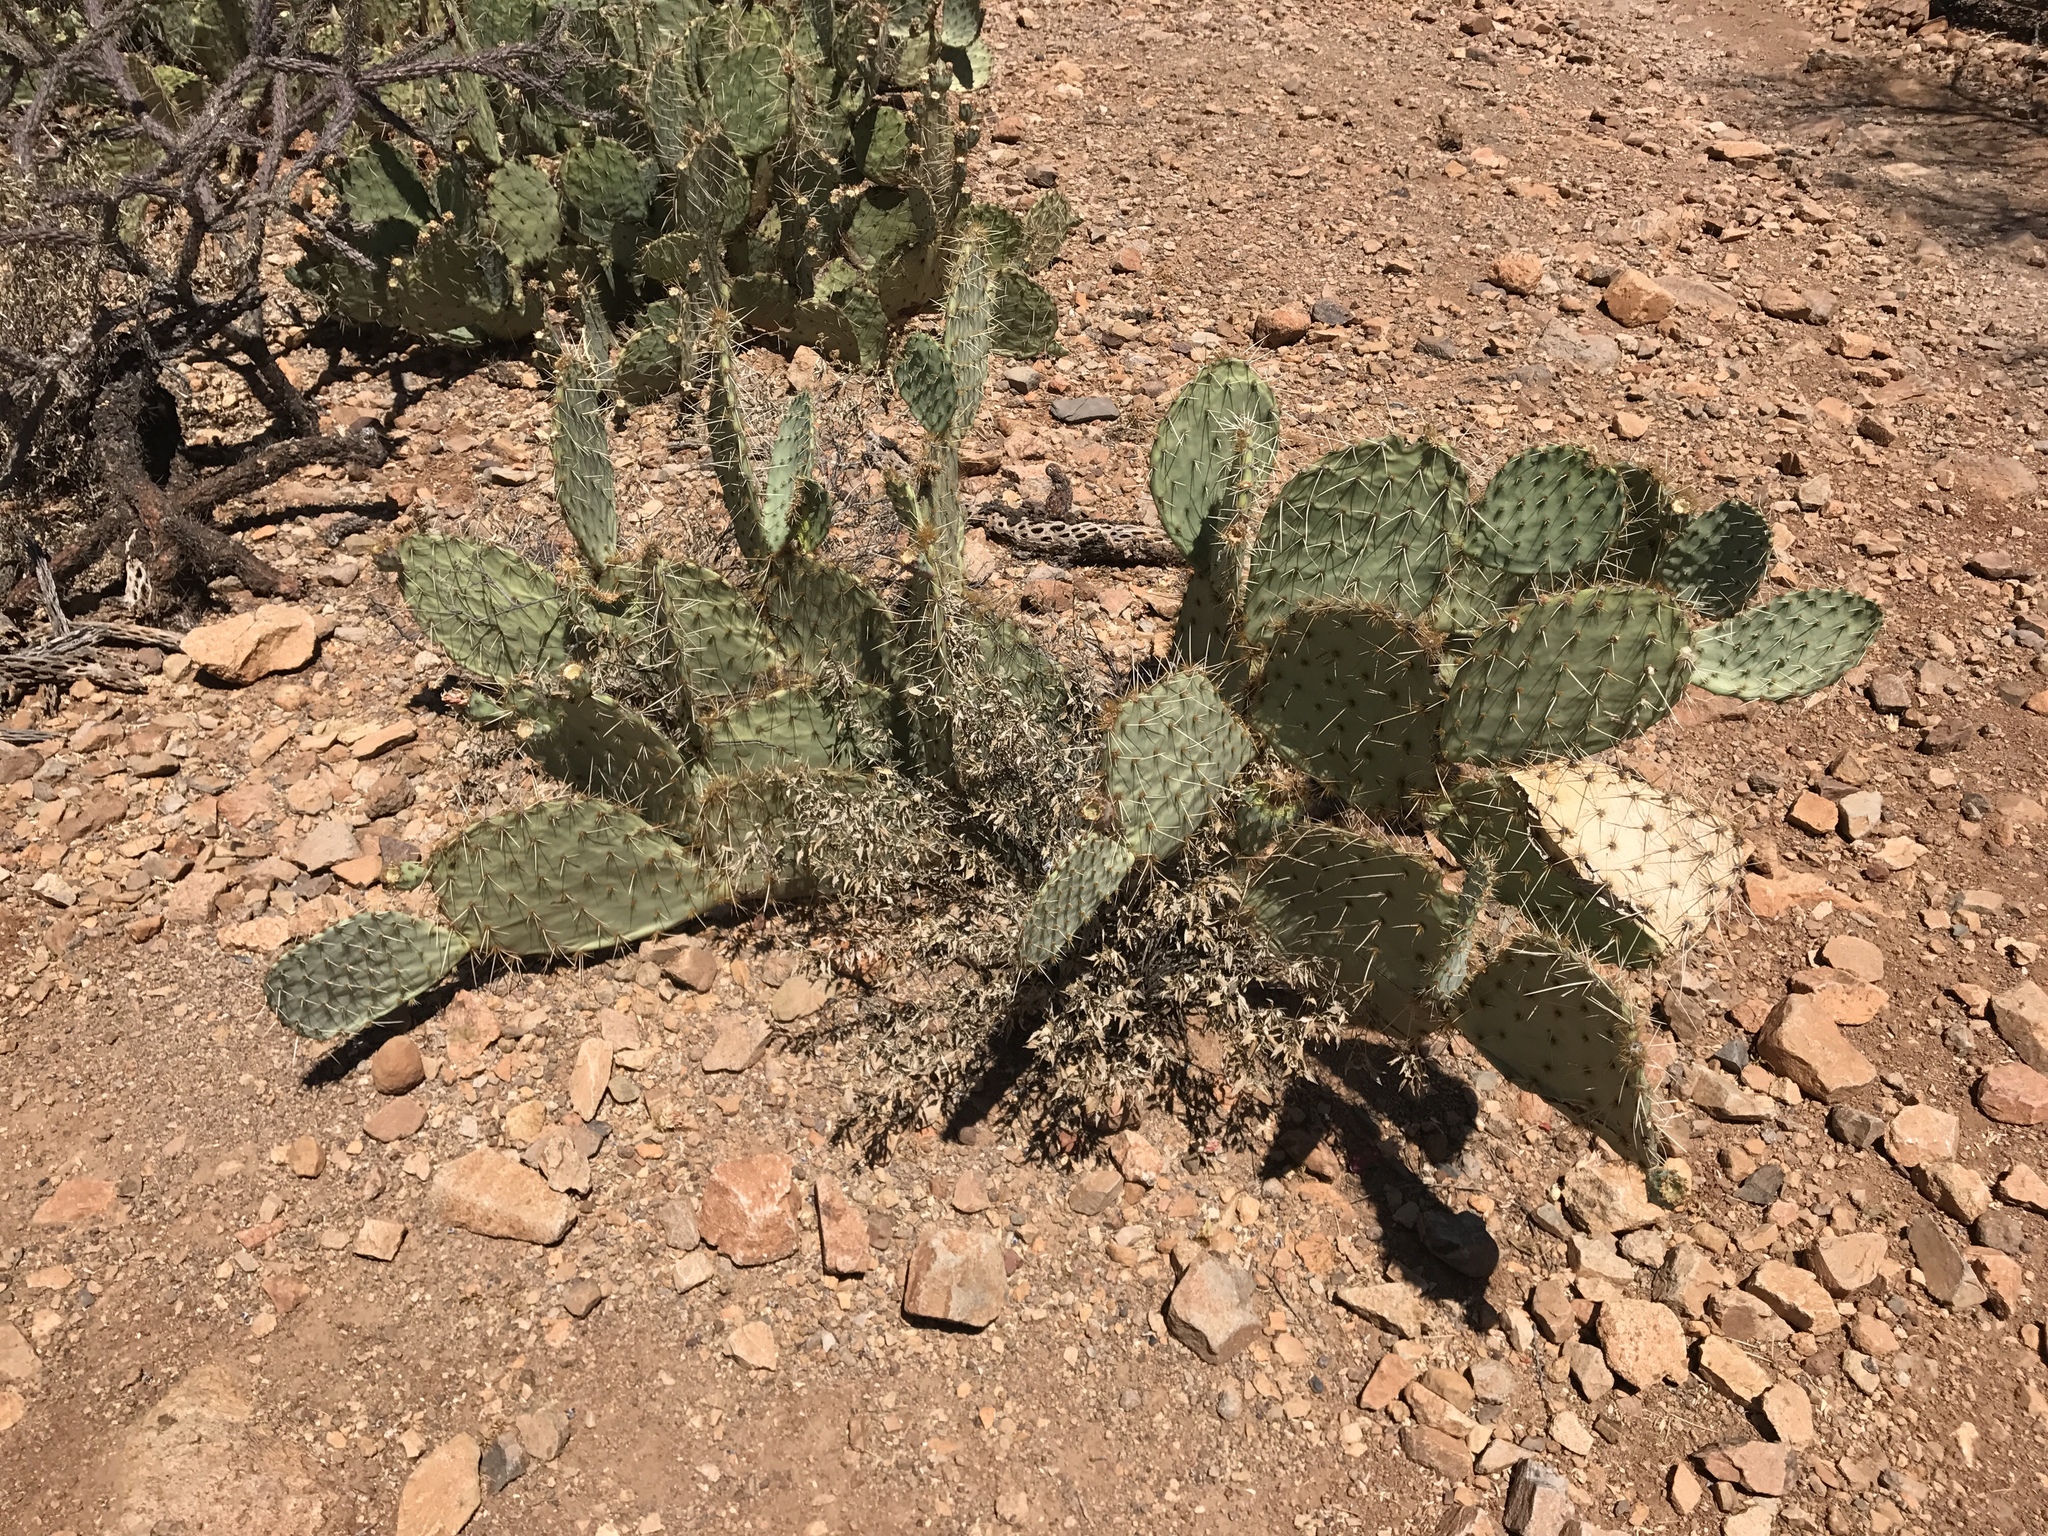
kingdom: Plantae
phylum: Tracheophyta
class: Magnoliopsida
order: Caryophyllales
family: Cactaceae
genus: Opuntia
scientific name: Opuntia engelmannii
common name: Cactus-apple
